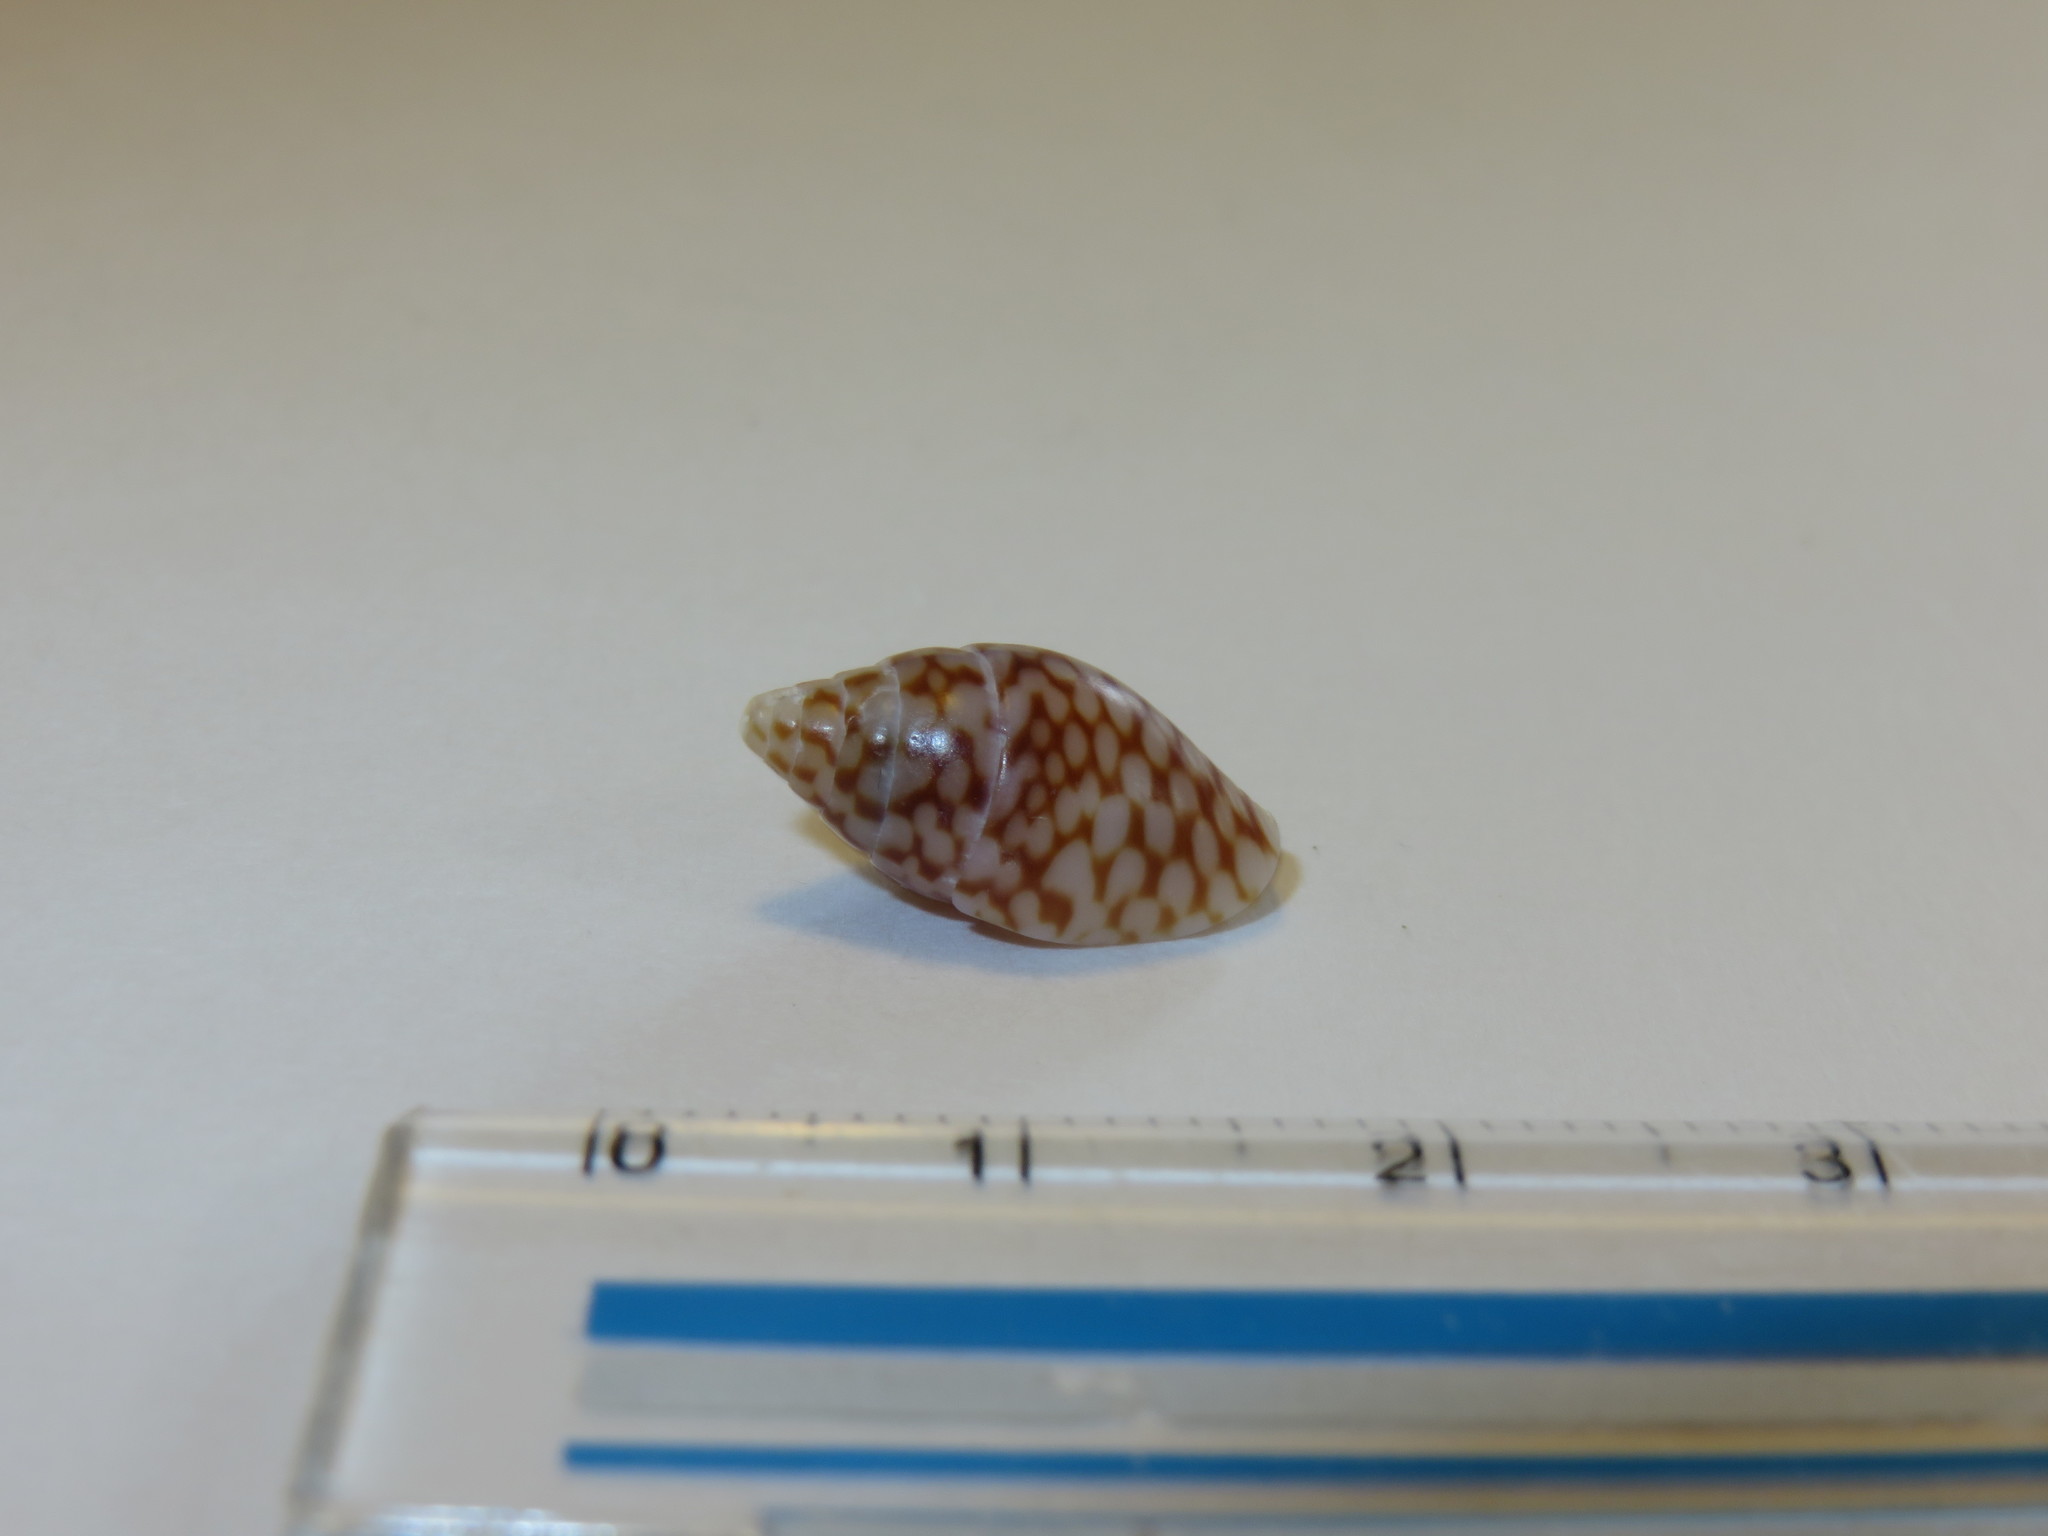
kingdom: Animalia
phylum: Mollusca
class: Gastropoda
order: Neogastropoda
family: Columbellidae
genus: Pardalinops de
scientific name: Pardalinops de Pardalinops testudinaria
